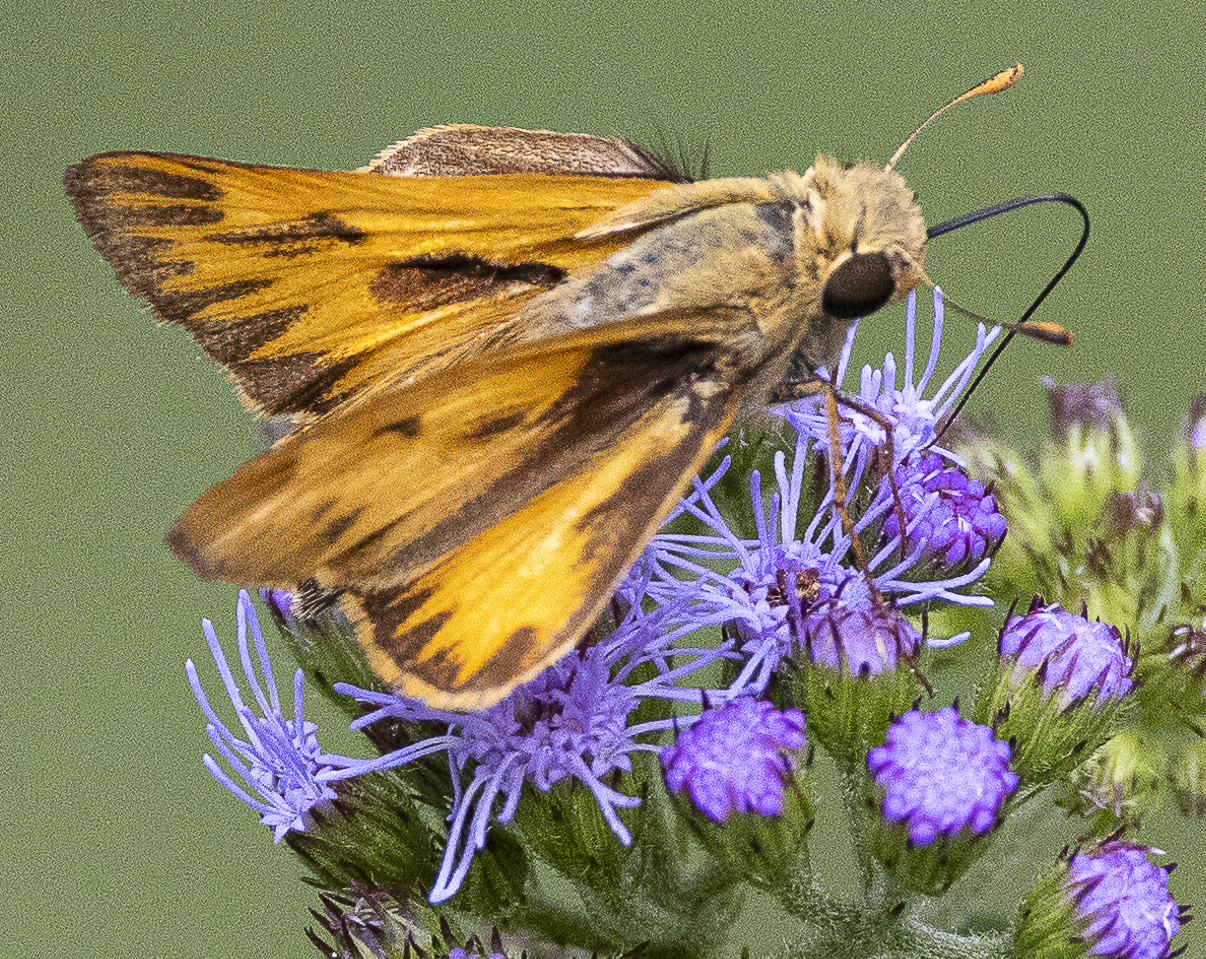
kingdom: Animalia
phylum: Arthropoda
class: Insecta
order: Lepidoptera
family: Hesperiidae
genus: Hylephila
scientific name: Hylephila phyleus
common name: Fiery skipper
